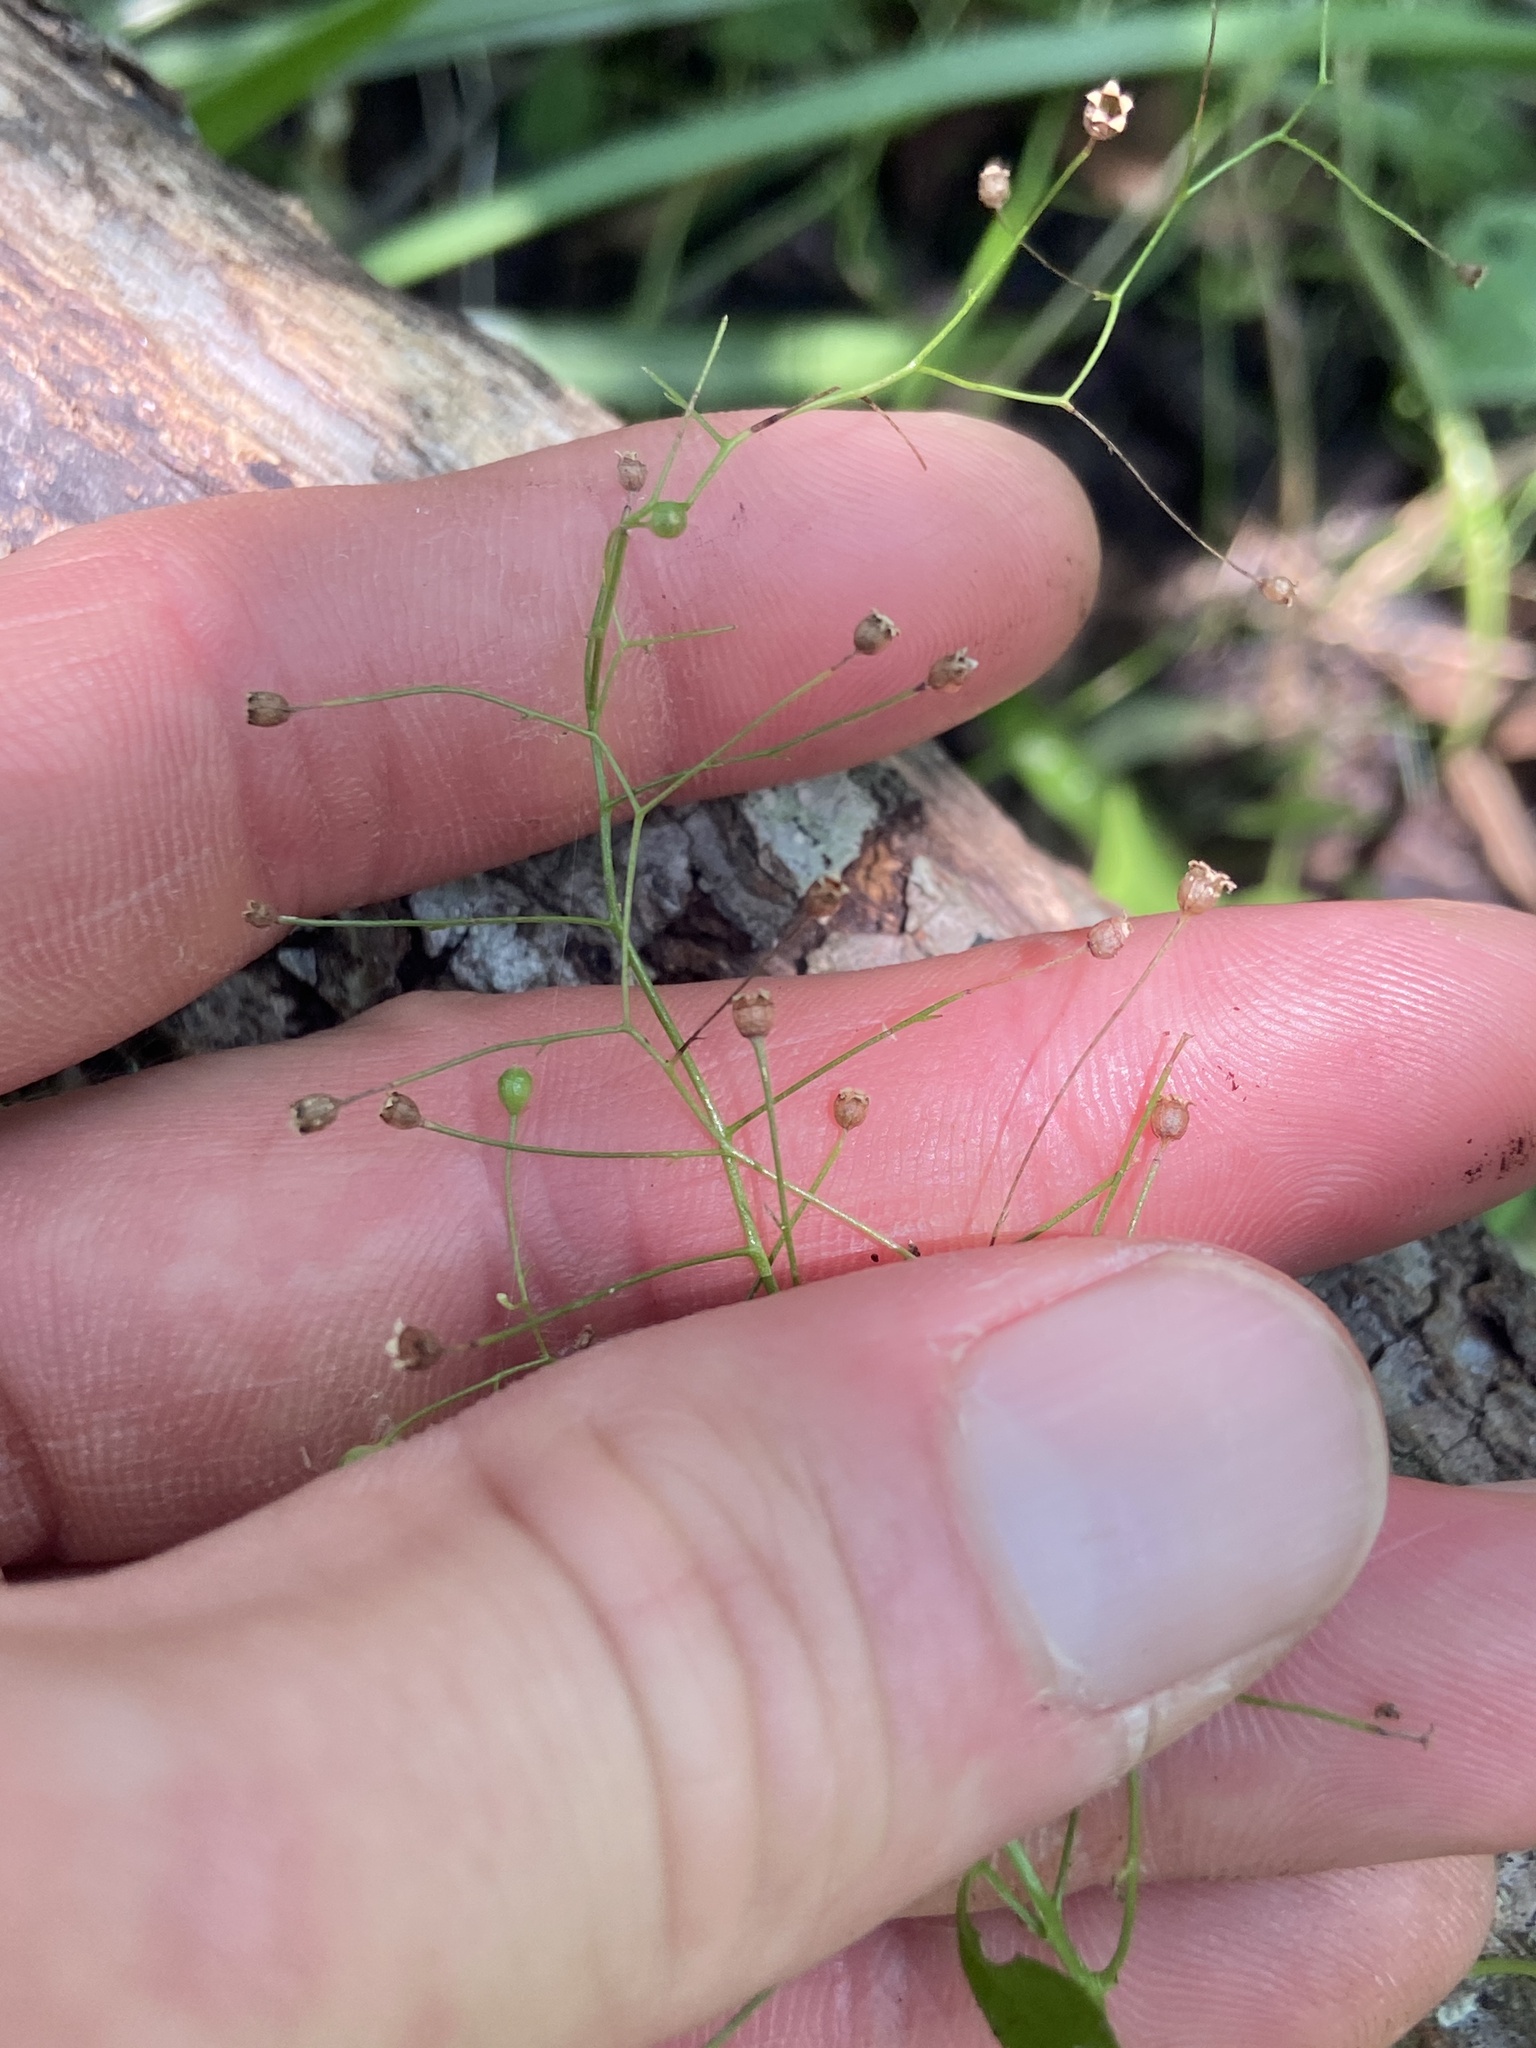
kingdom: Plantae
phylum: Tracheophyta
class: Magnoliopsida
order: Ericales
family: Primulaceae
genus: Samolus
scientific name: Samolus parviflorus
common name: False water pimpernel
